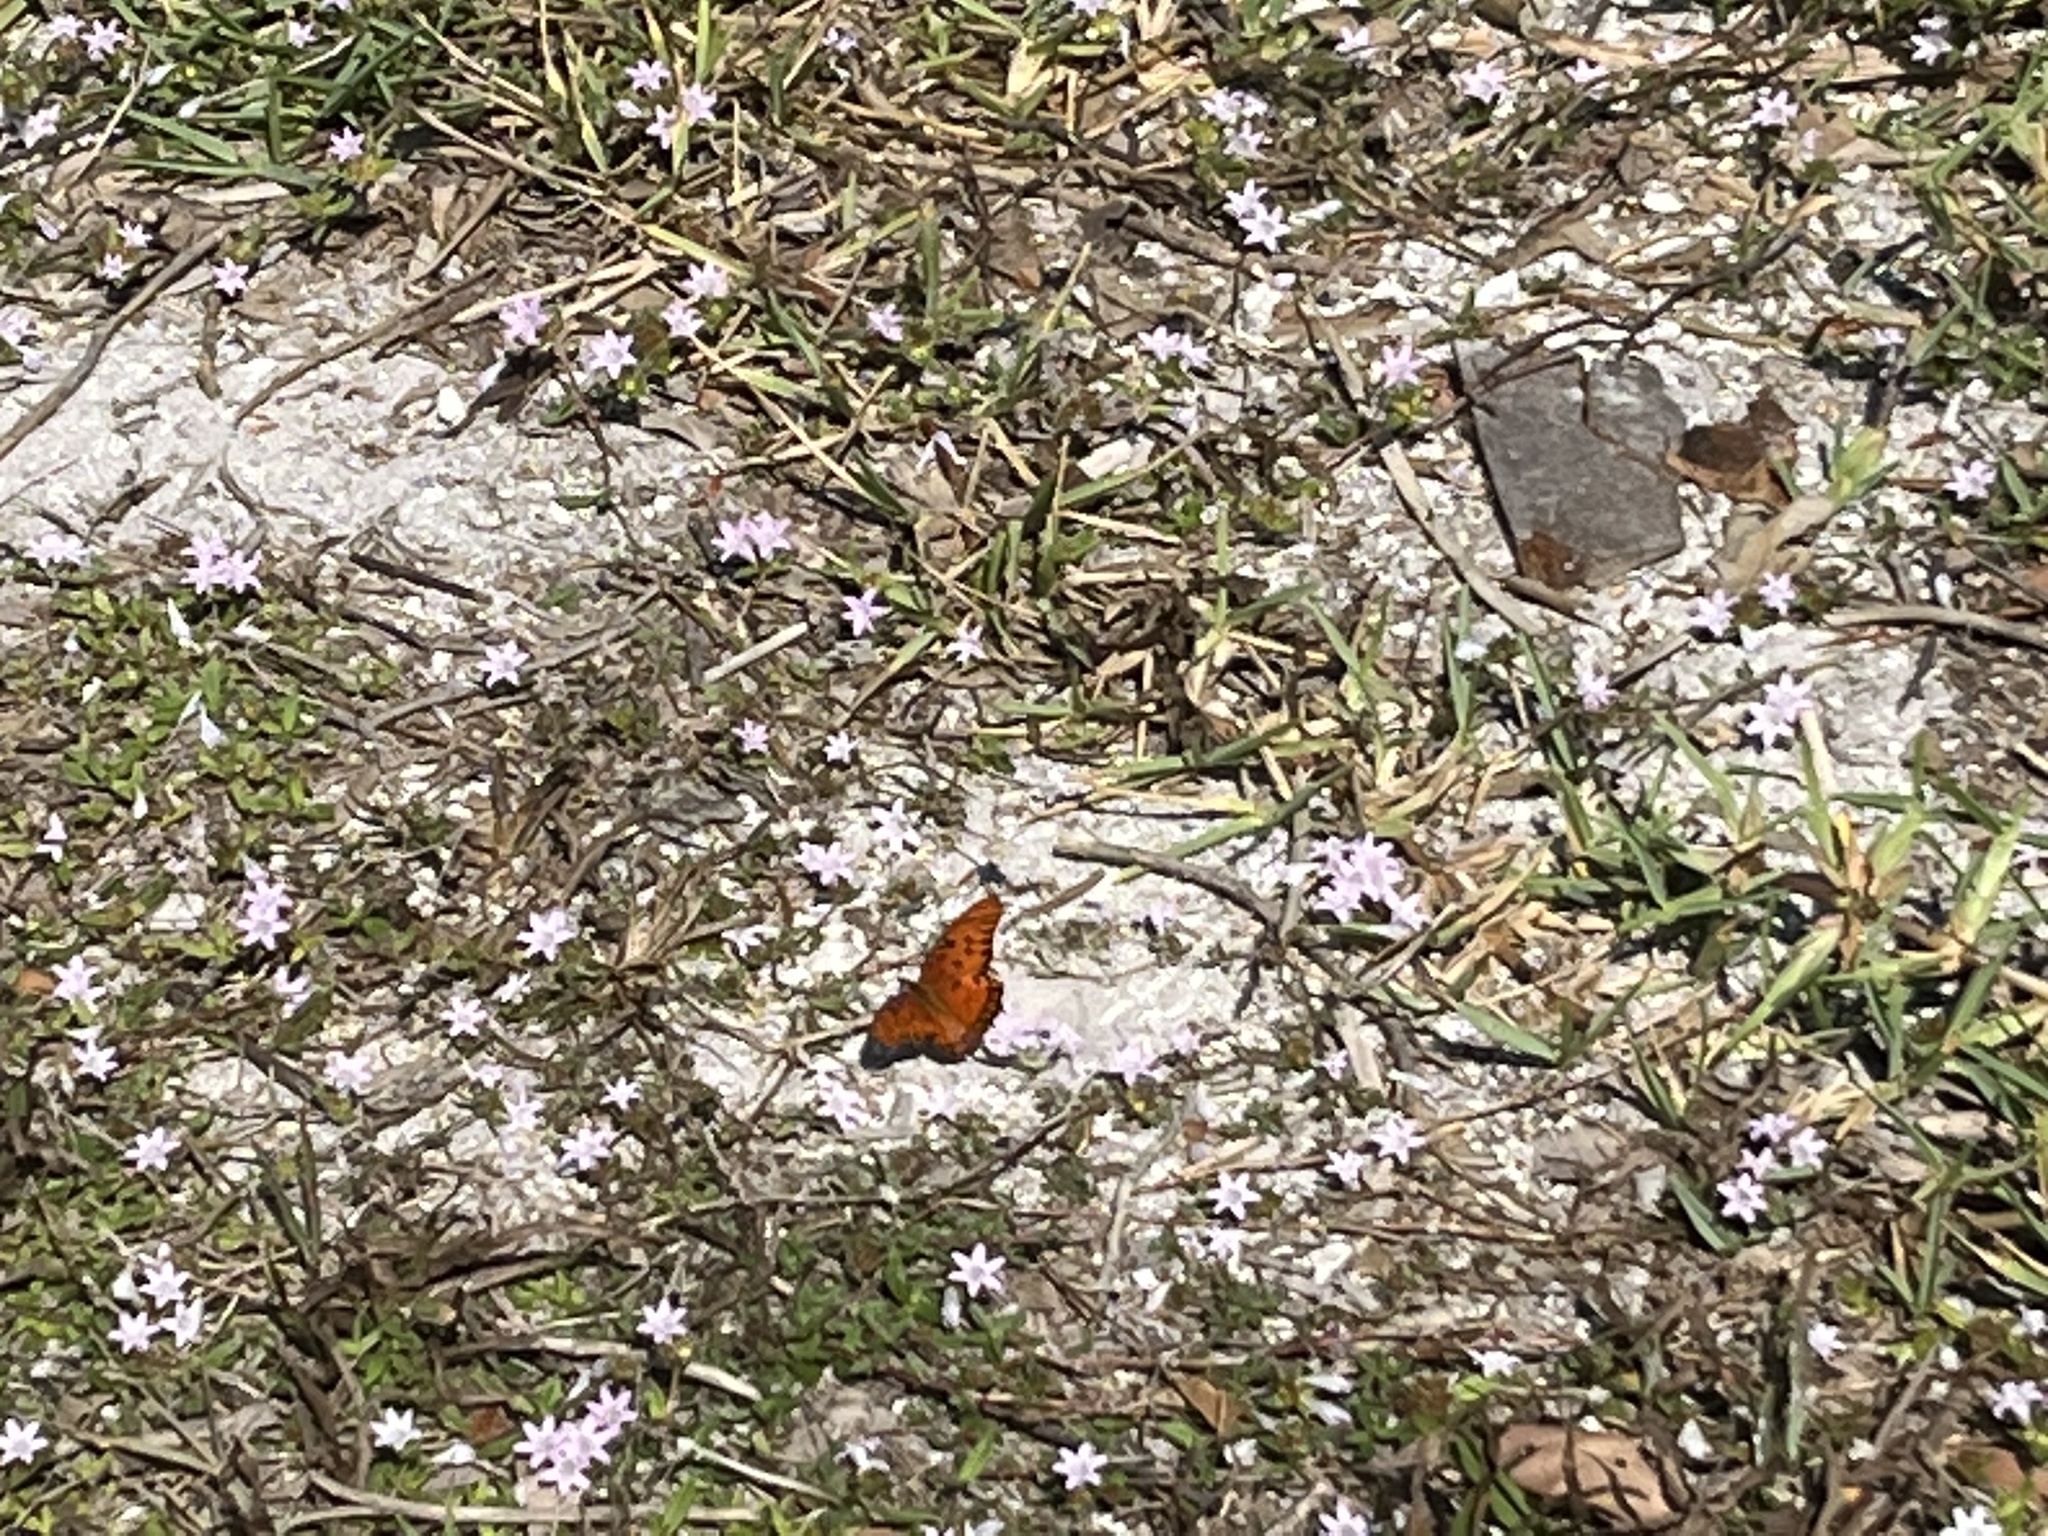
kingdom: Animalia
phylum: Arthropoda
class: Insecta
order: Lepidoptera
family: Nymphalidae
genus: Dione
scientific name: Dione vanillae
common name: Gulf fritillary
